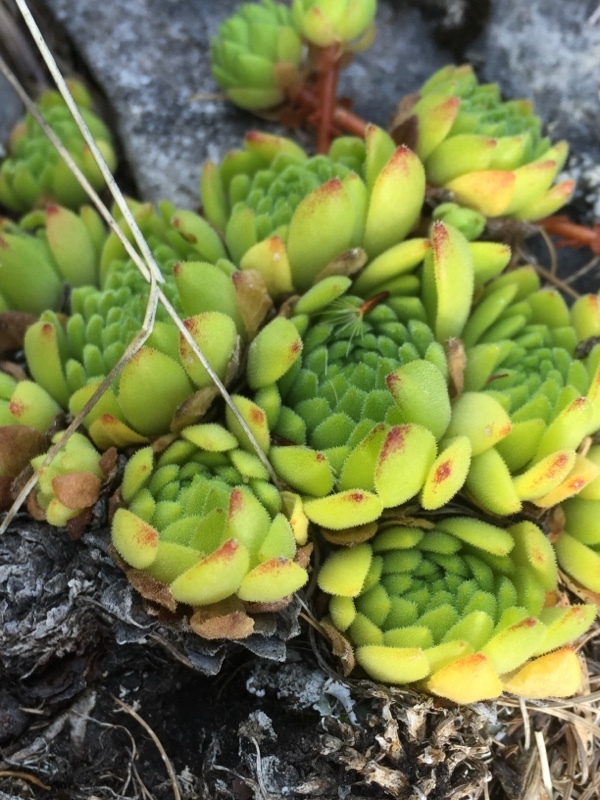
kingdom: Plantae
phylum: Tracheophyta
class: Magnoliopsida
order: Saxifragales
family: Crassulaceae
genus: Sempervivum
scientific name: Sempervivum montanum
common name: Mountain house-leek
